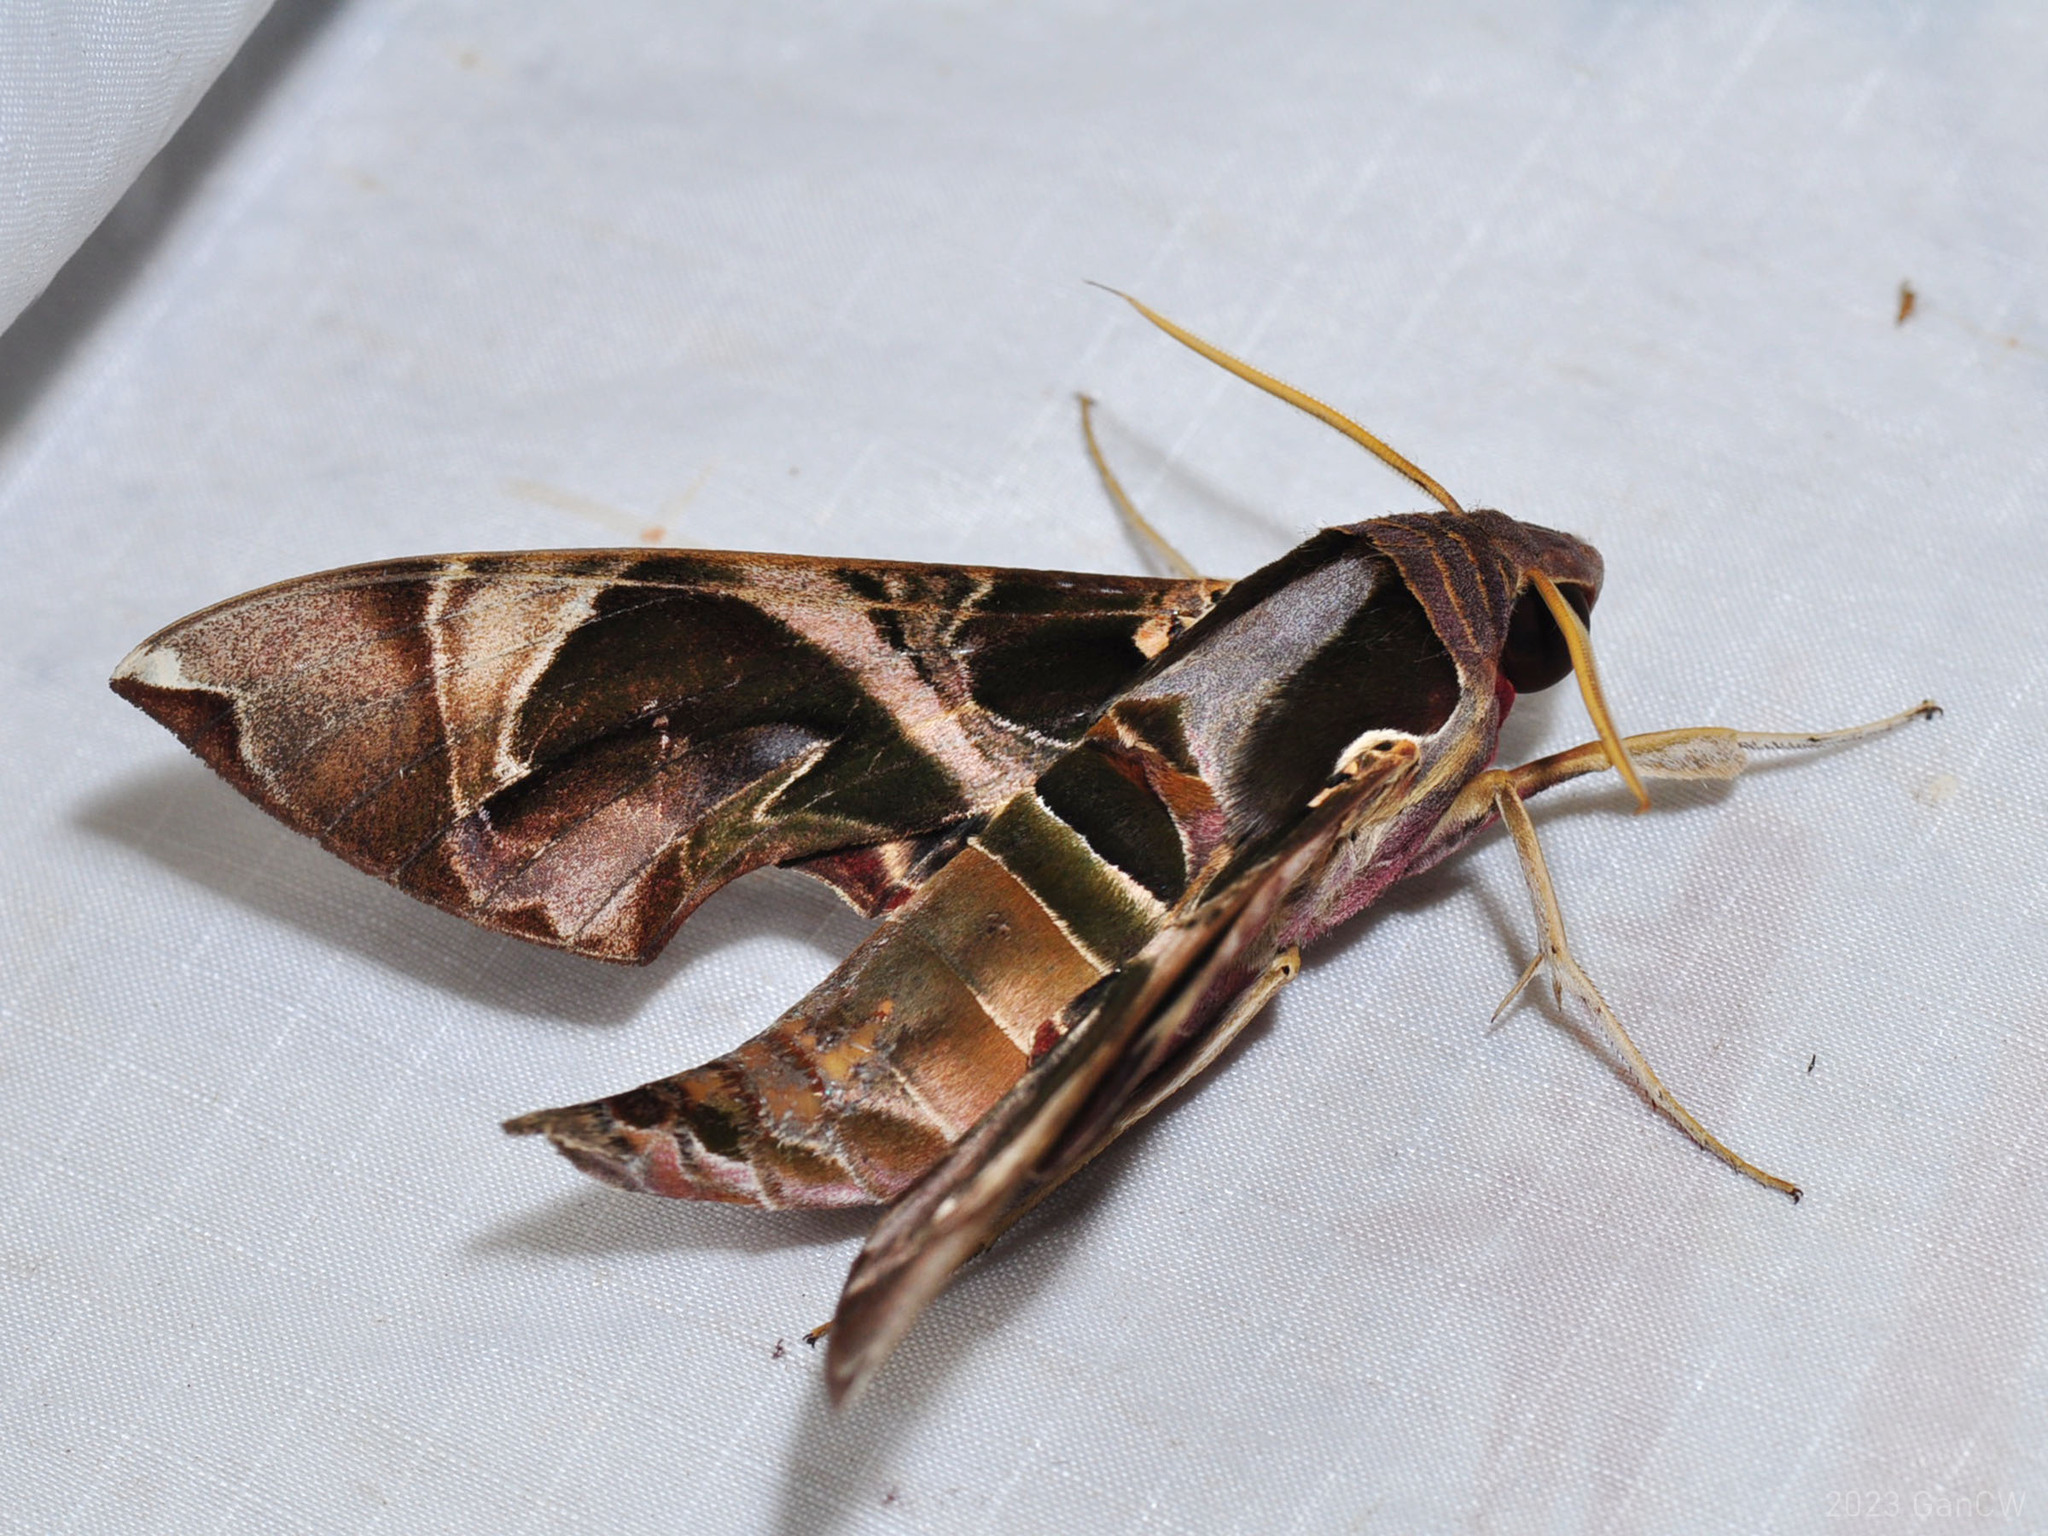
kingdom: Animalia
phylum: Arthropoda
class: Insecta
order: Lepidoptera
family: Sphingidae
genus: Daphnis
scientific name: Daphnis hypothous
